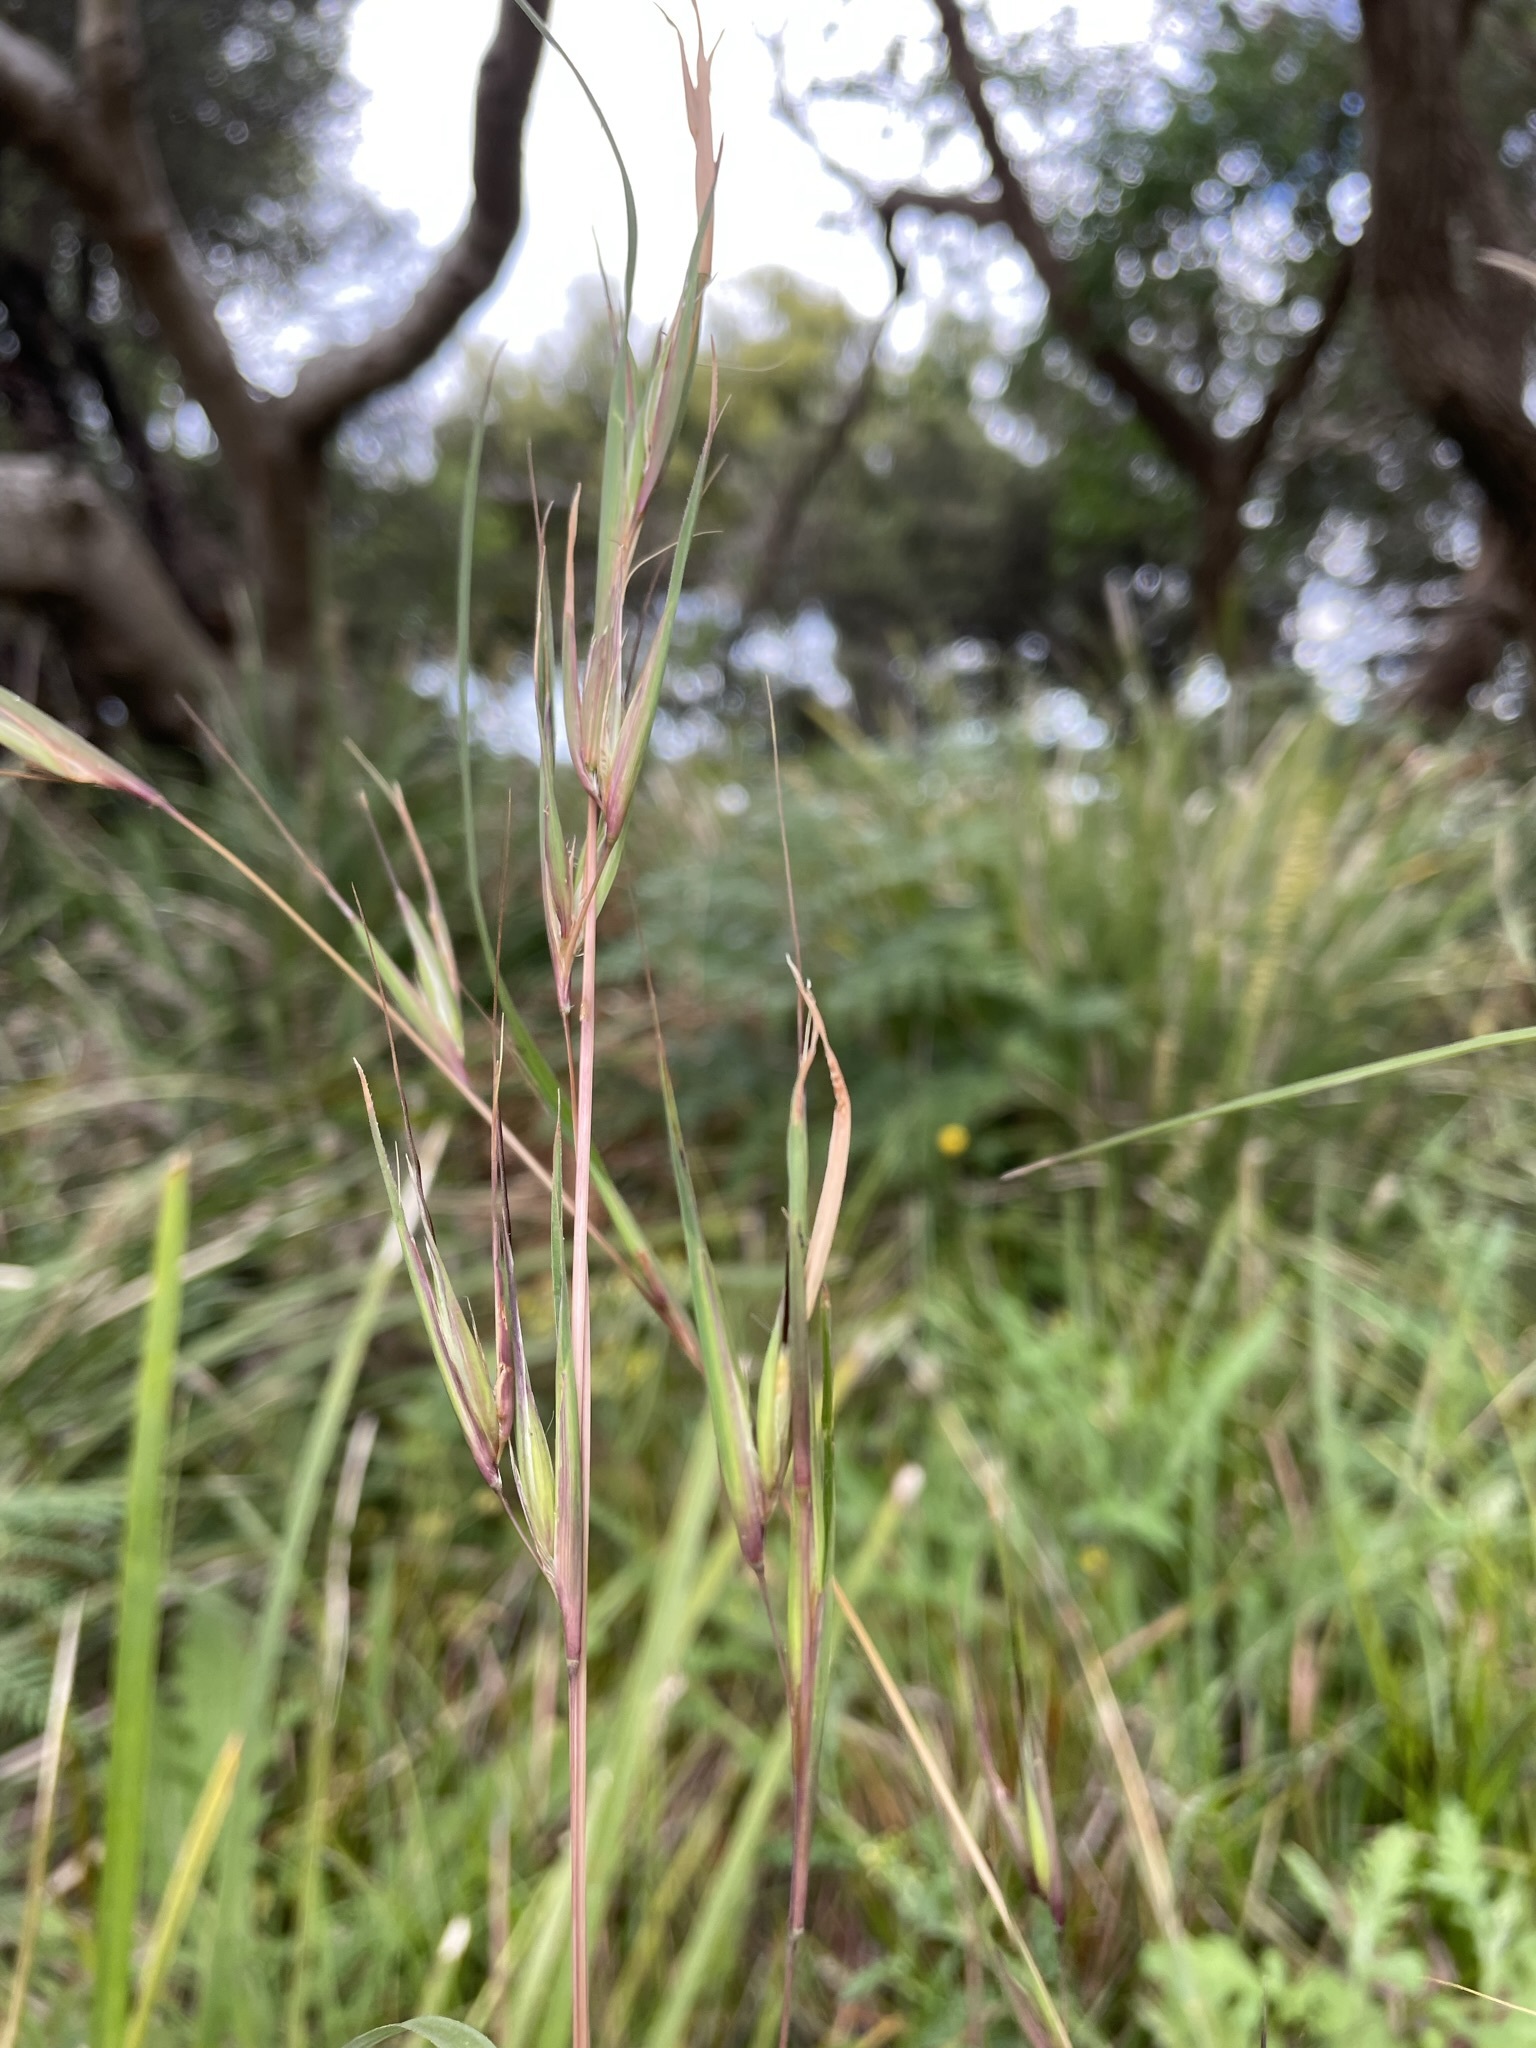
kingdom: Plantae
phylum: Tracheophyta
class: Liliopsida
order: Poales
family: Poaceae
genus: Themeda
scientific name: Themeda triandra
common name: Kangaroo grass
